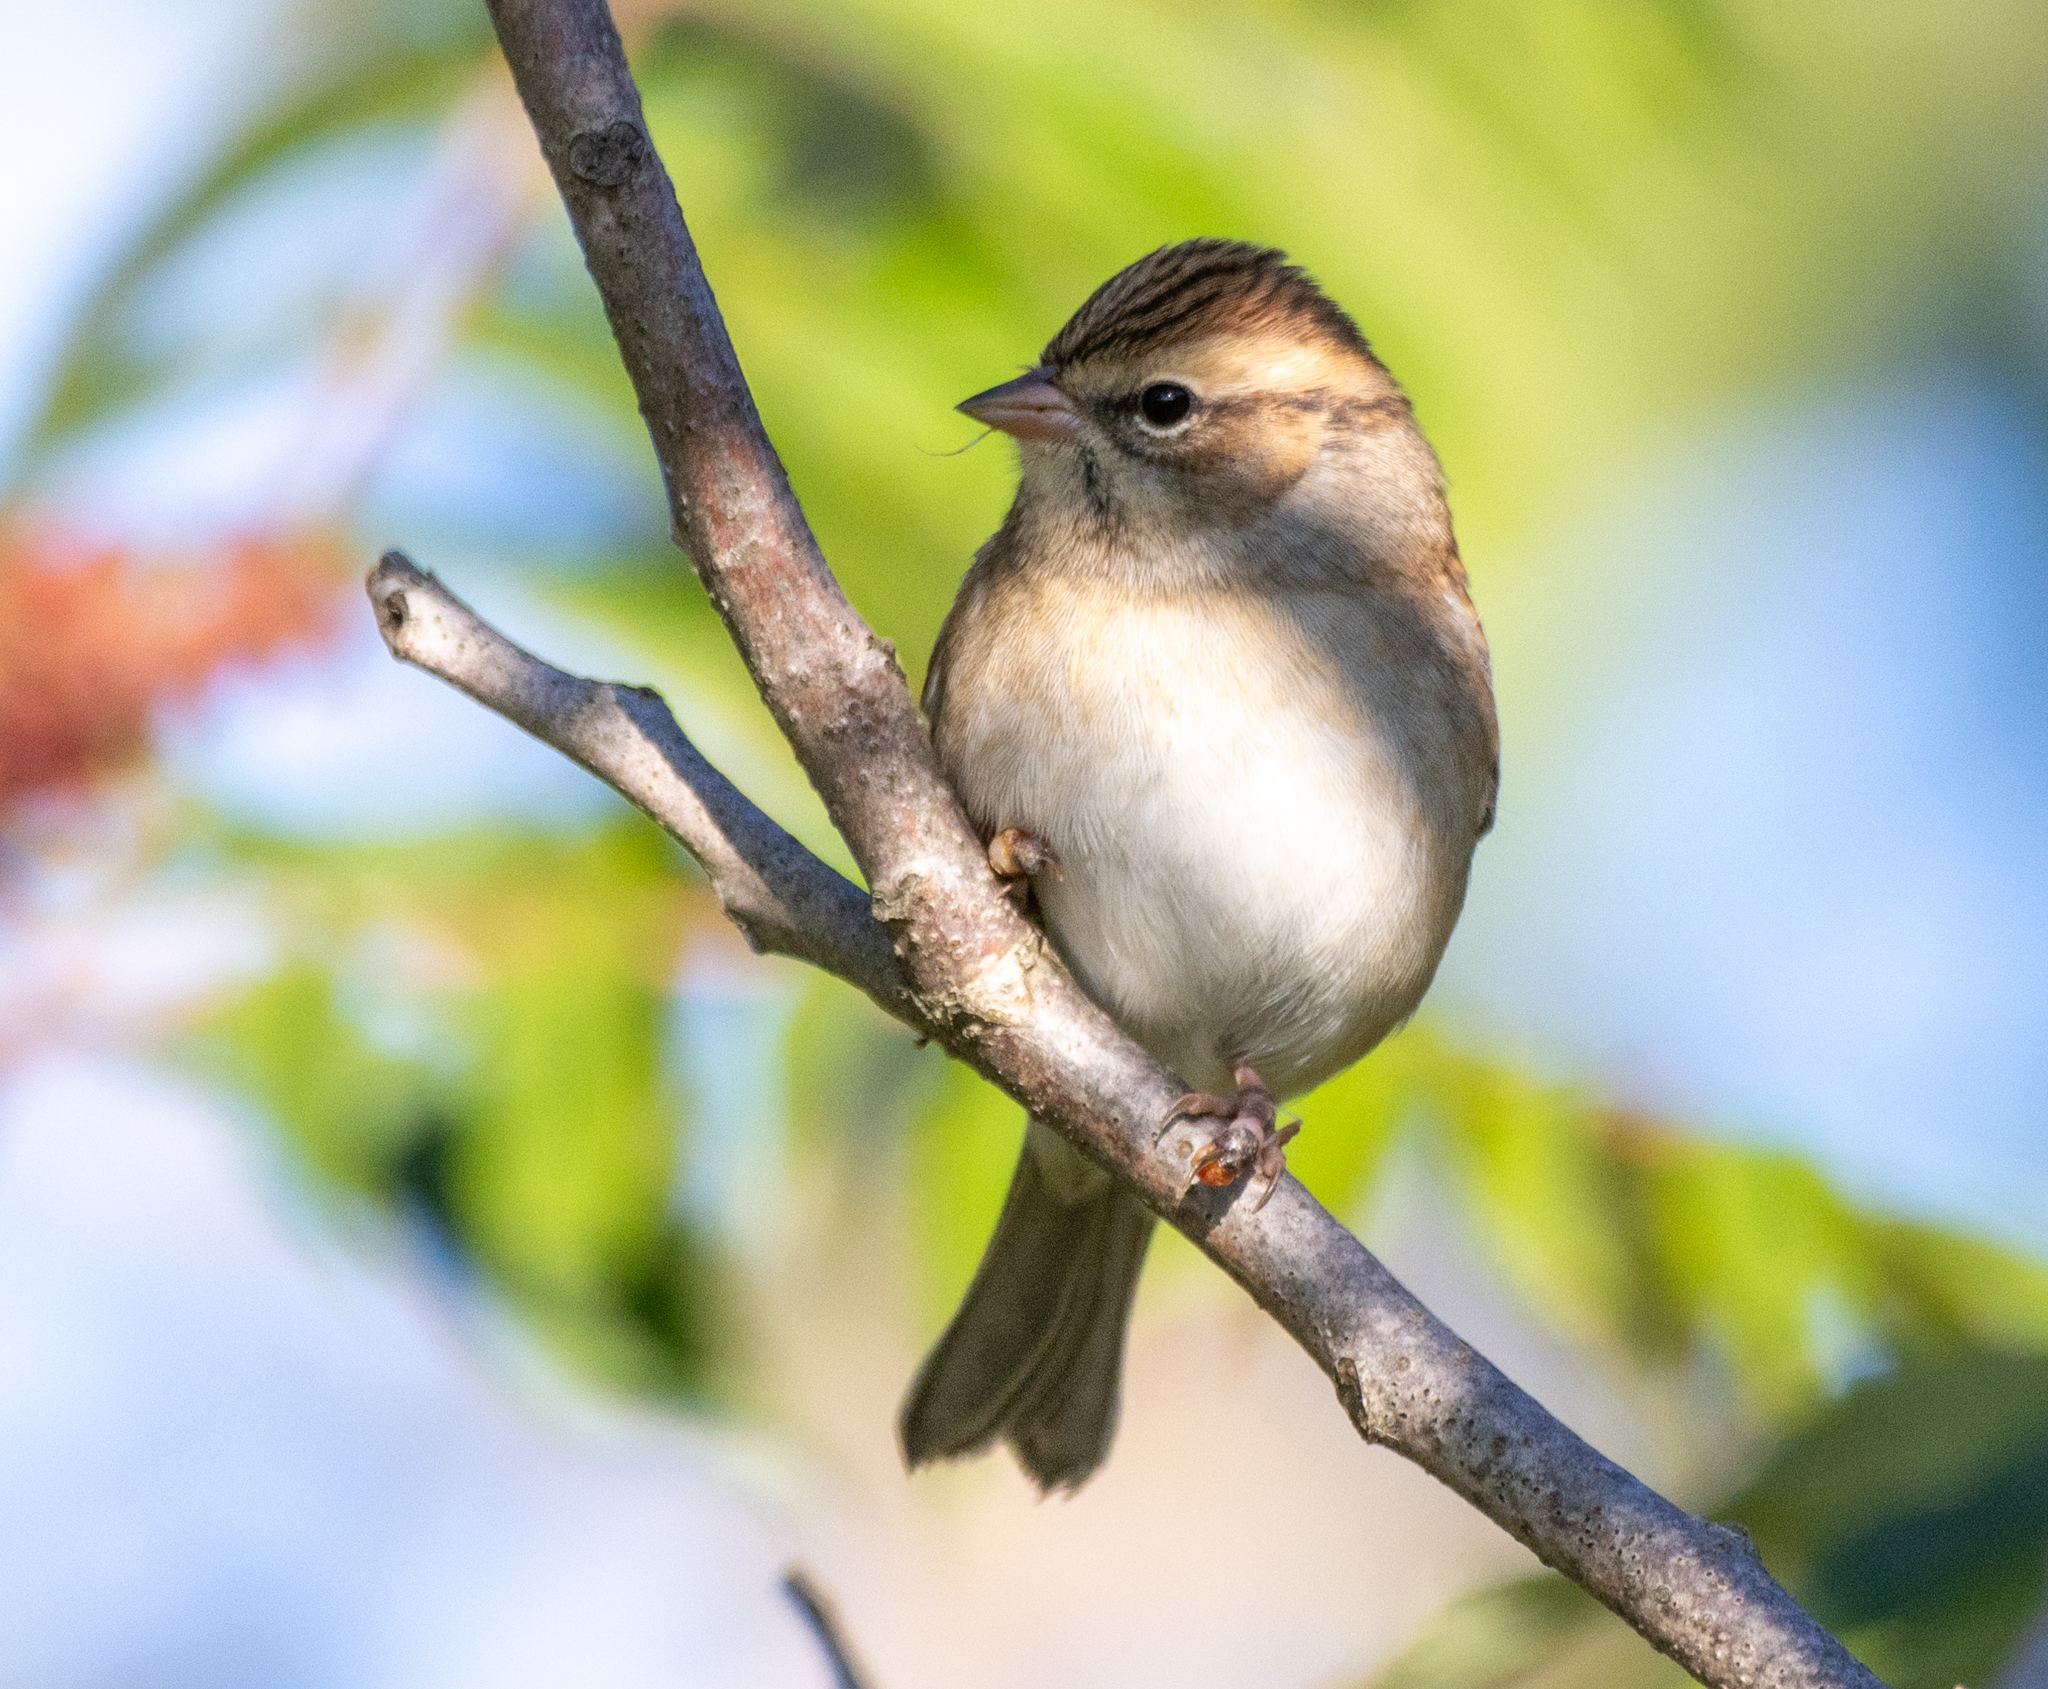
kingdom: Animalia
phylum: Chordata
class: Aves
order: Passeriformes
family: Passerellidae
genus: Spizella
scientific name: Spizella pallida
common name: Clay-colored sparrow
